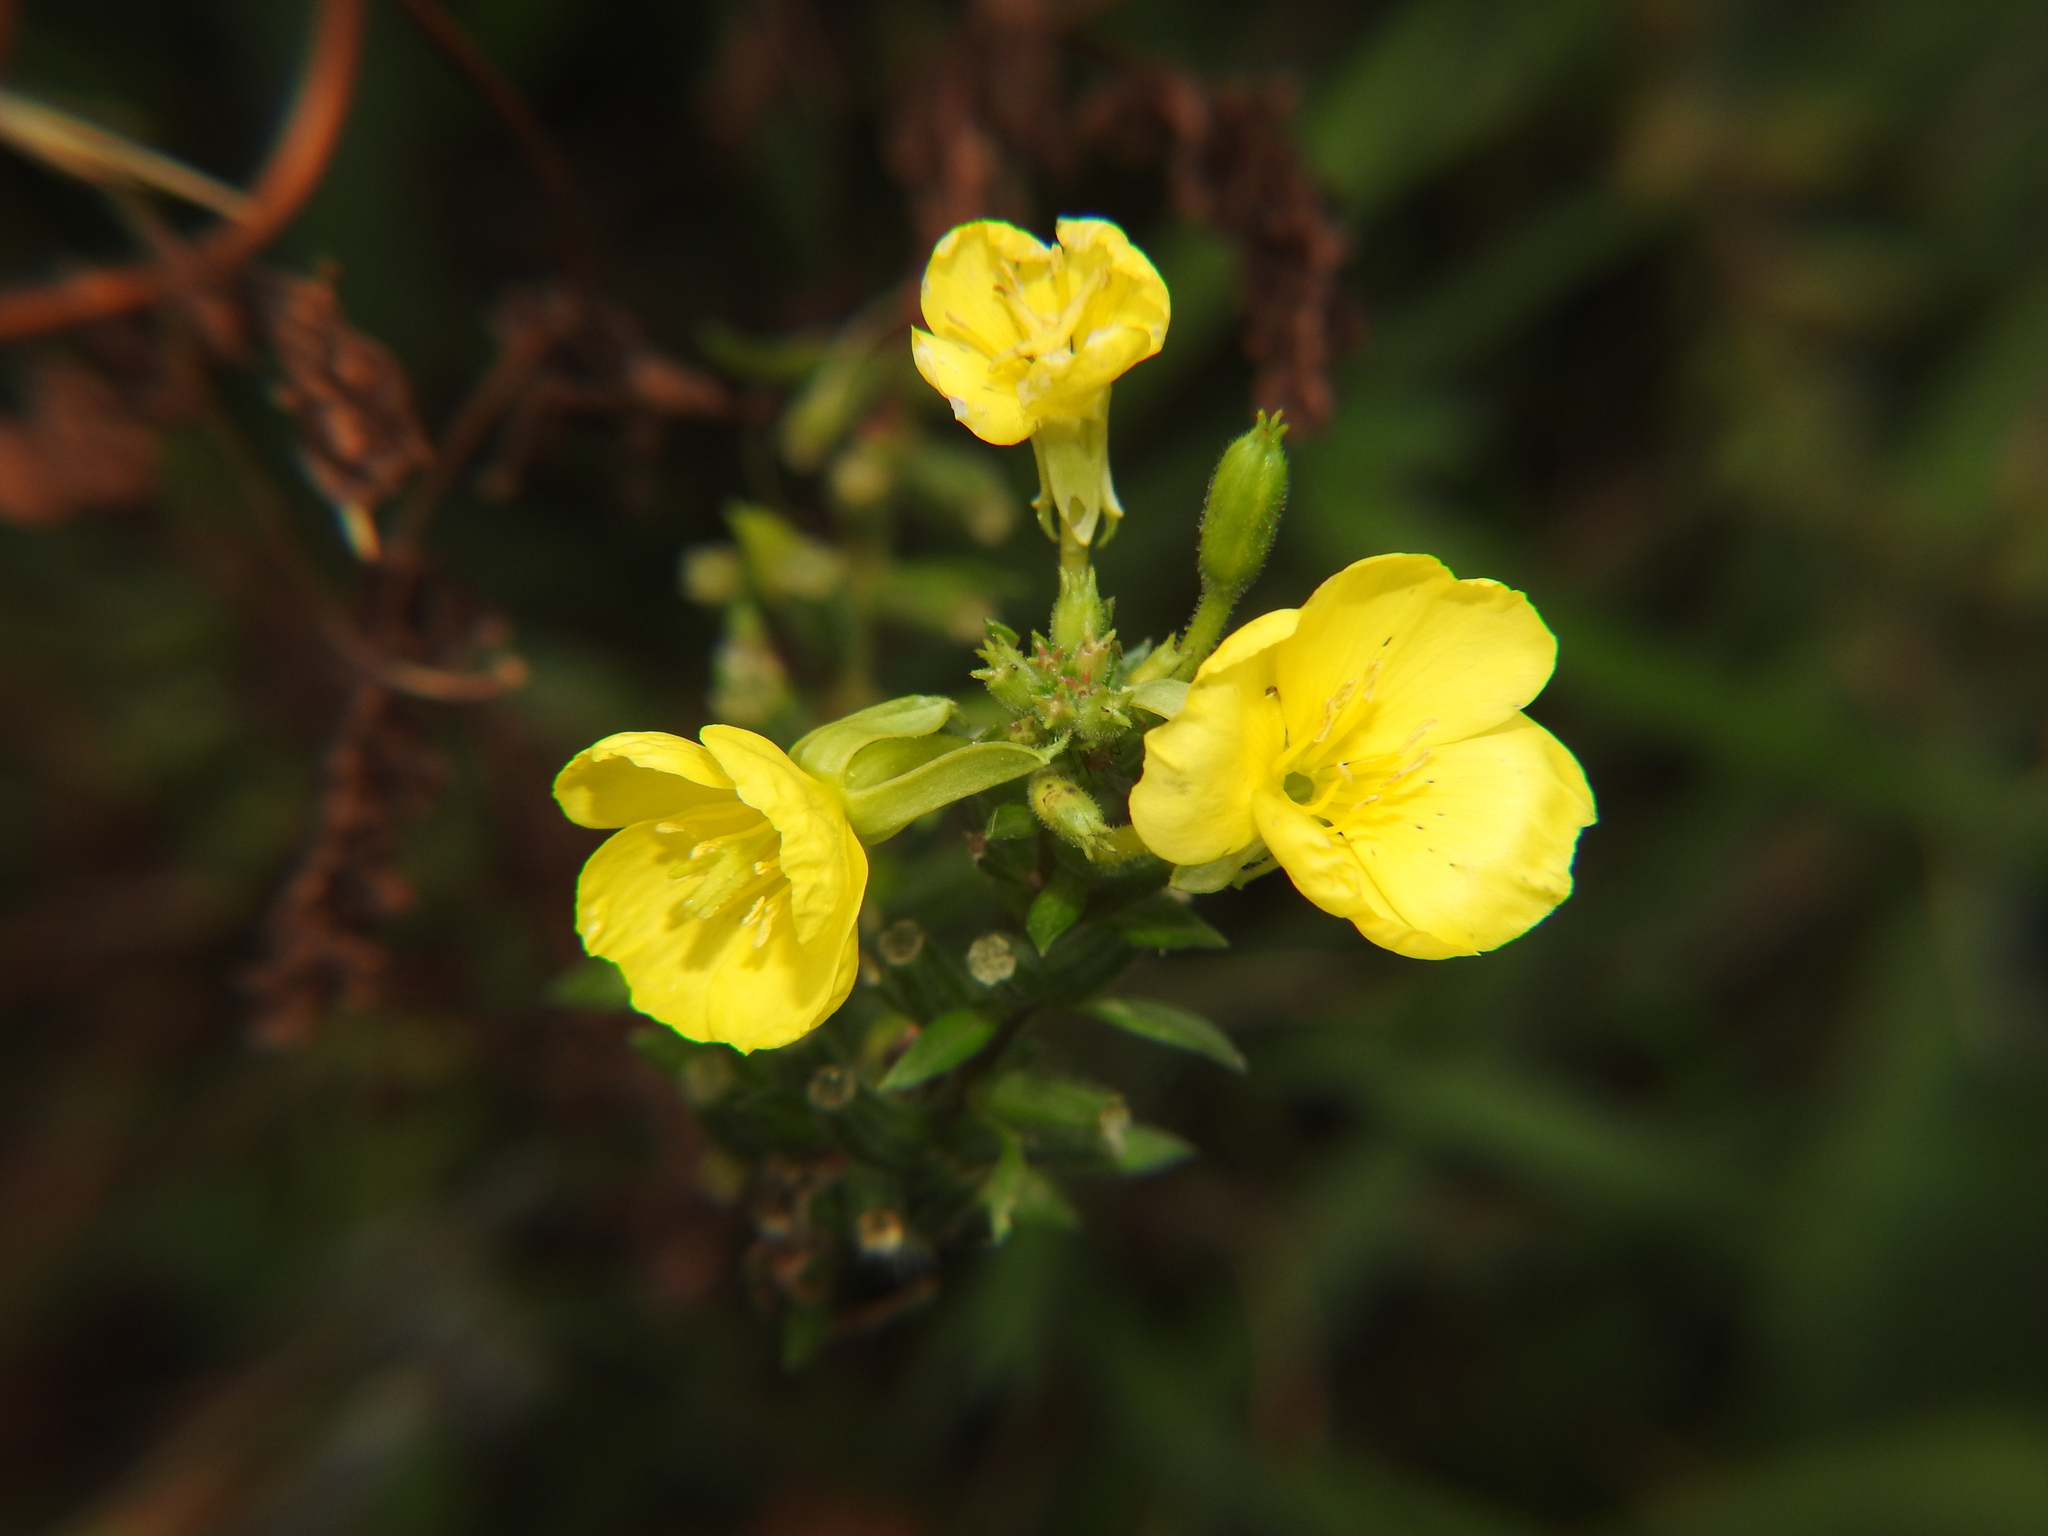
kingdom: Plantae
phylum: Tracheophyta
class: Magnoliopsida
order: Myrtales
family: Onagraceae
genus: Oenothera
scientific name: Oenothera biennis
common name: Common evening-primrose
